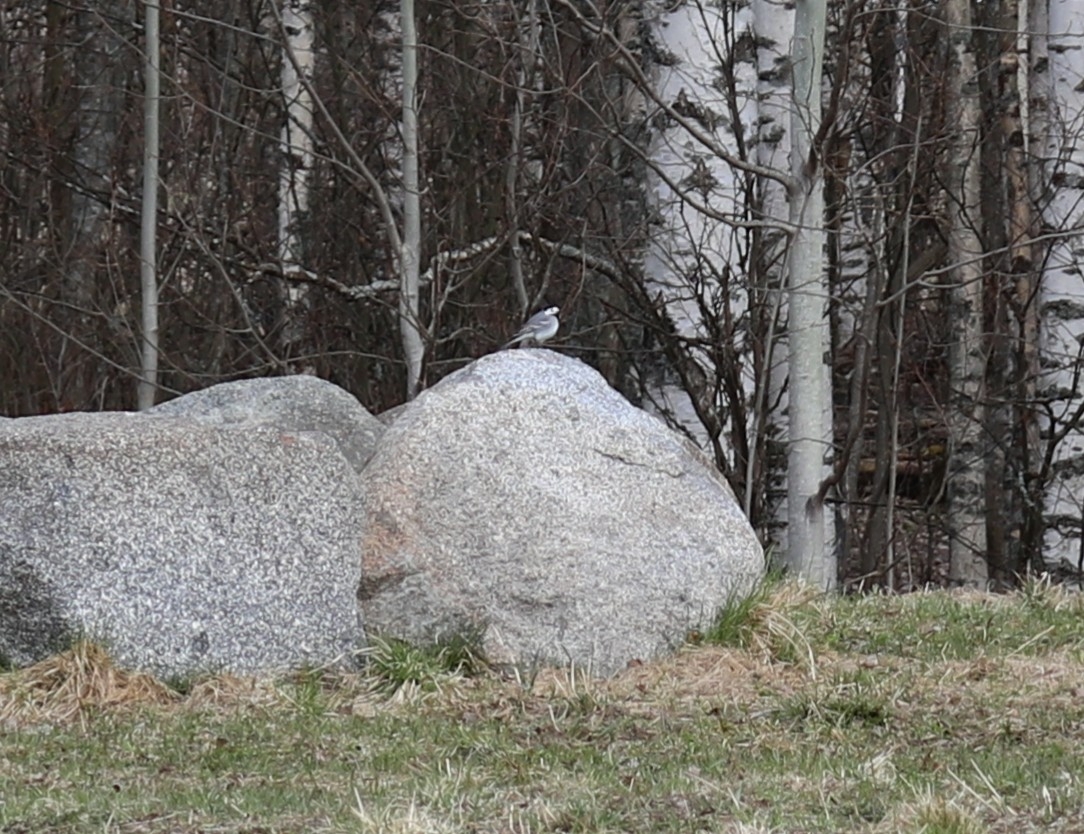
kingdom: Animalia
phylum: Chordata
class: Aves
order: Passeriformes
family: Motacillidae
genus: Motacilla
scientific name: Motacilla alba
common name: White wagtail
